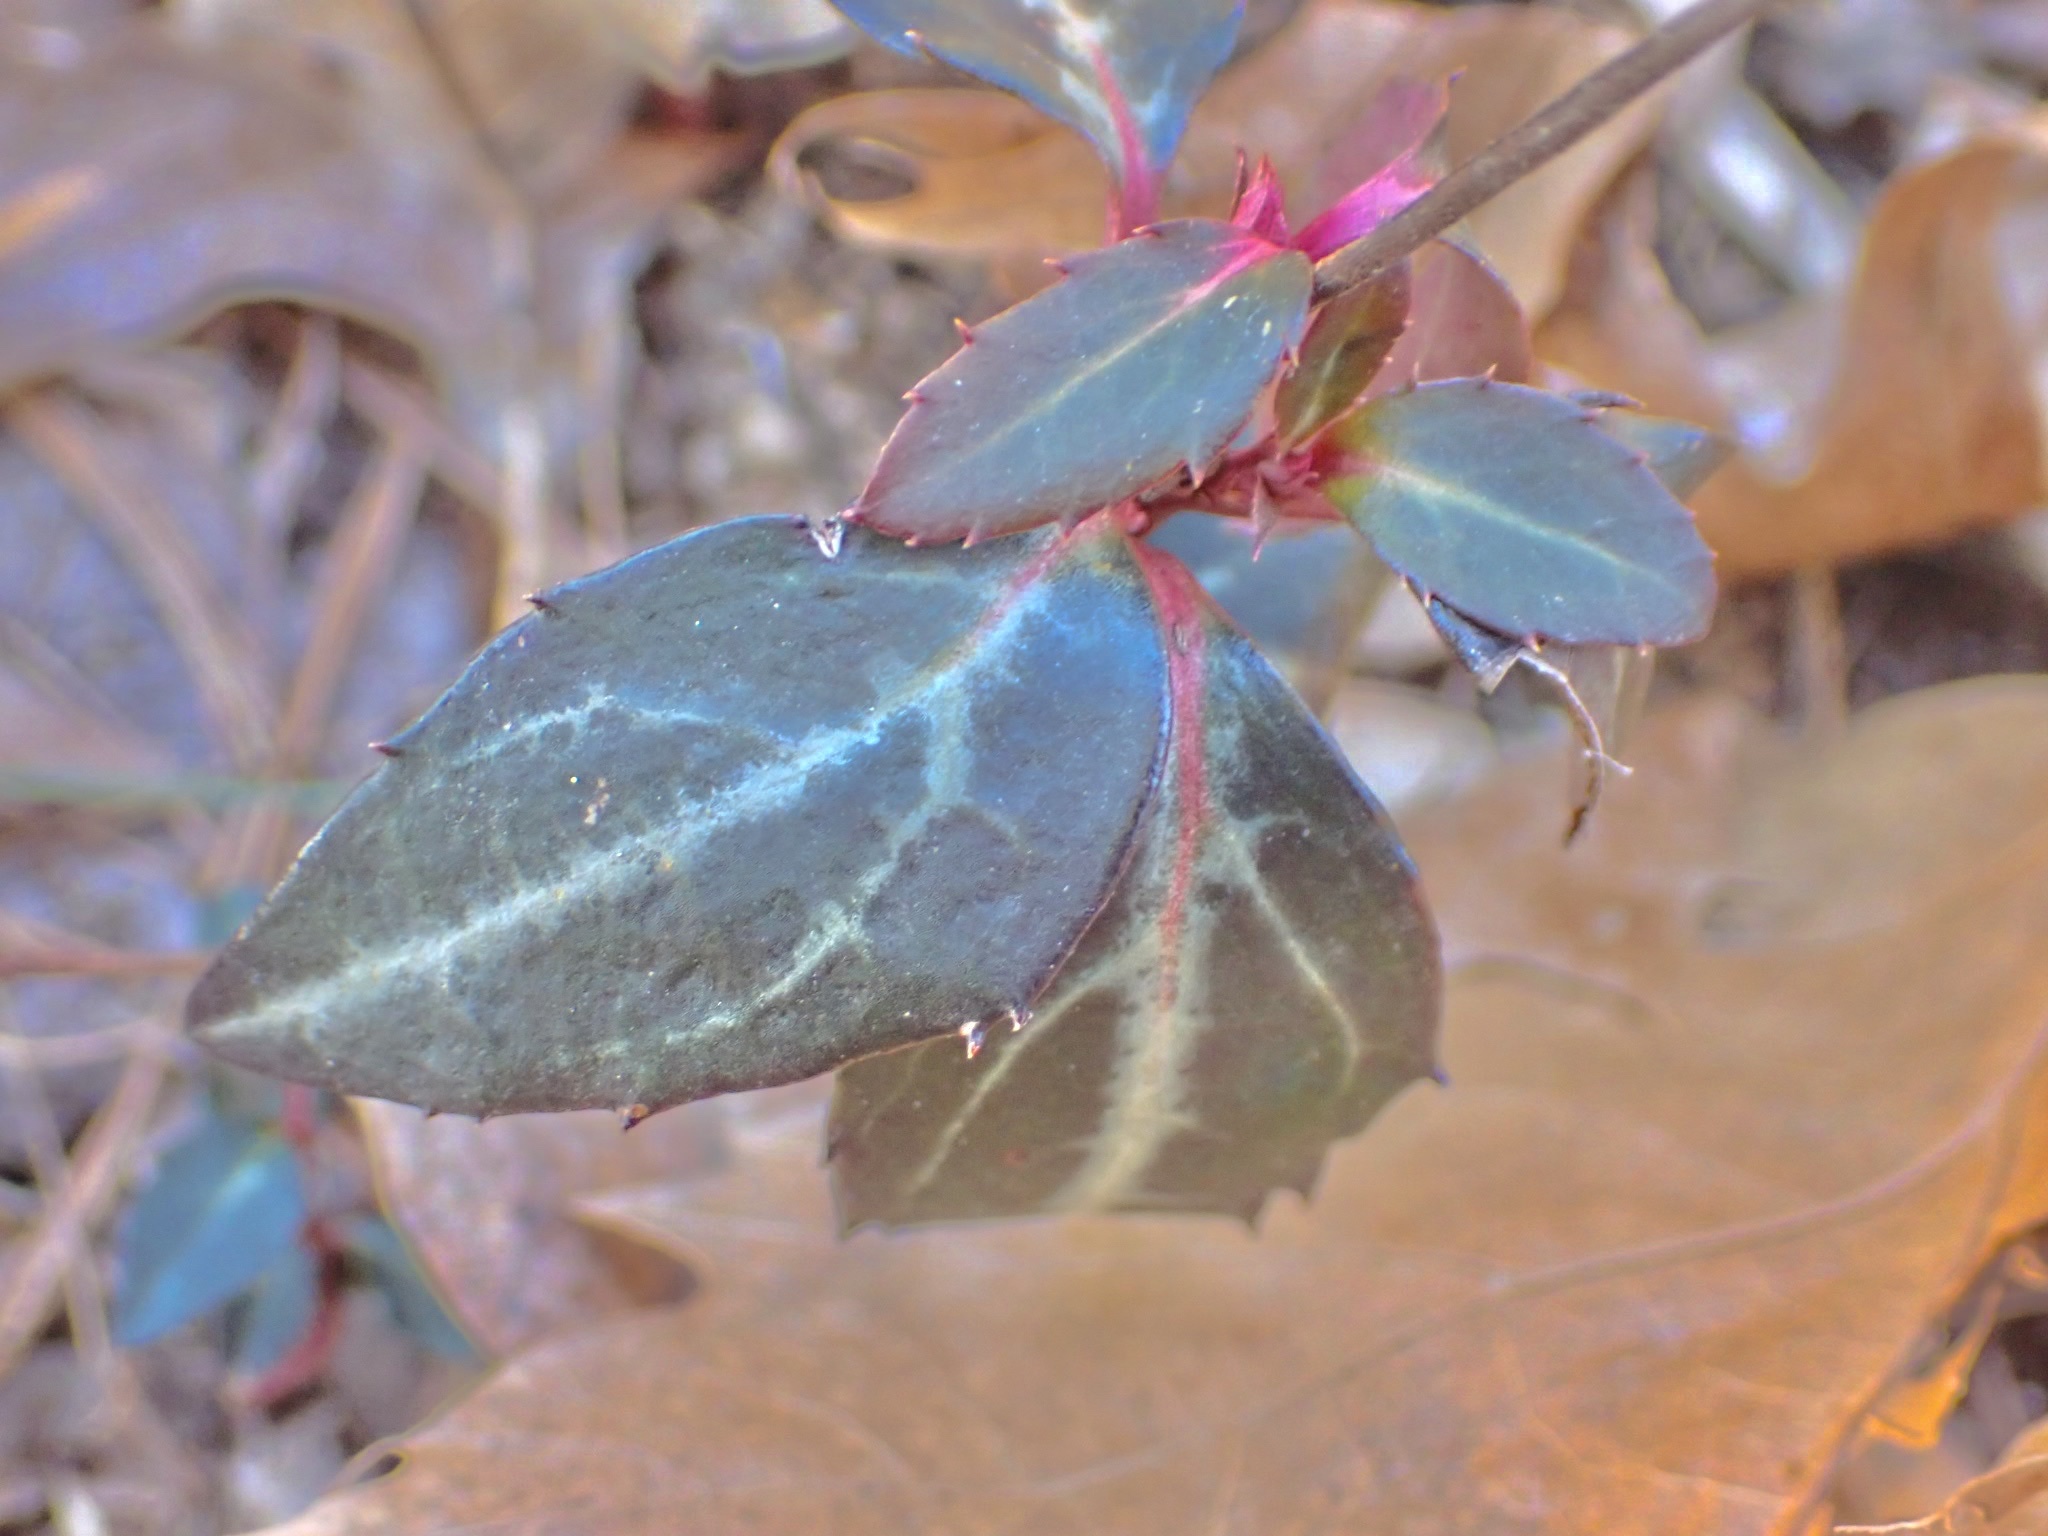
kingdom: Plantae
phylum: Tracheophyta
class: Magnoliopsida
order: Ericales
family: Ericaceae
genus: Chimaphila
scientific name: Chimaphila maculata
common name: Spotted pipsissewa
